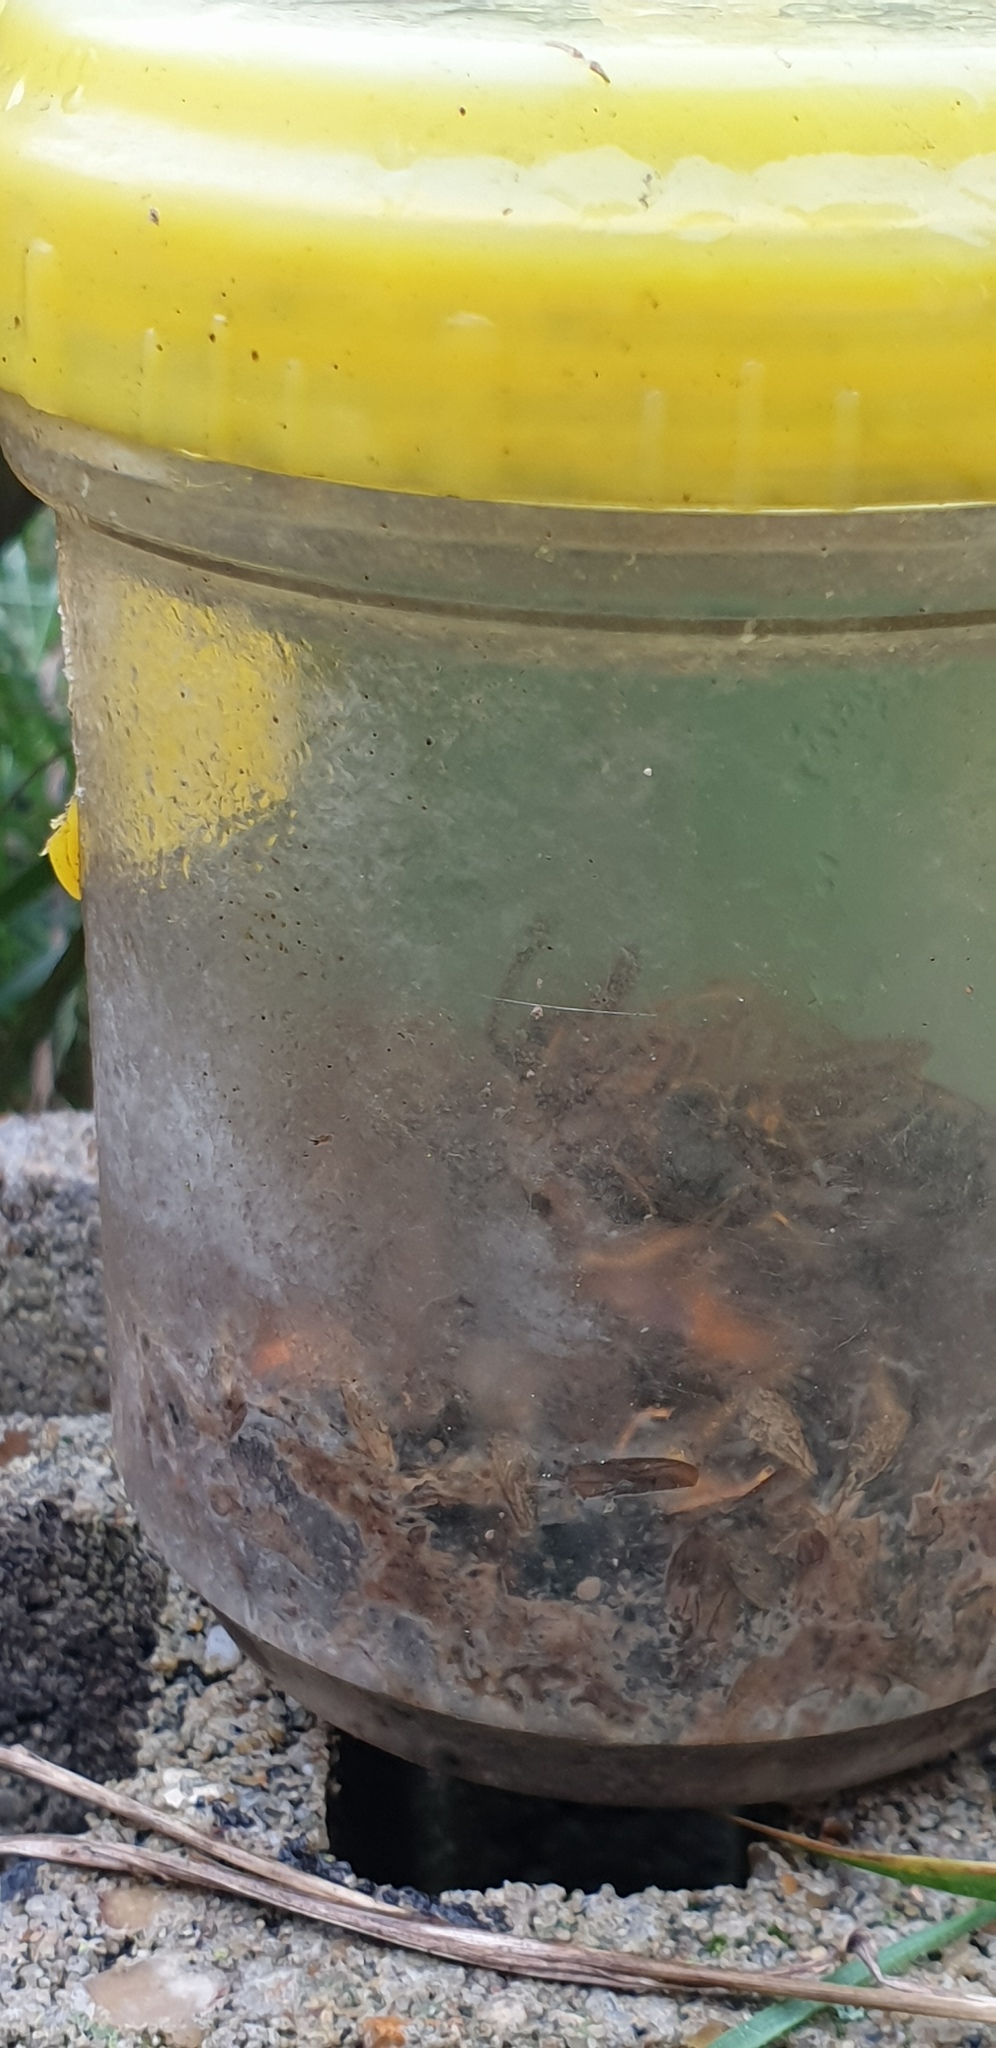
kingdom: Animalia
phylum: Arthropoda
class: Insecta
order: Hymenoptera
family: Vespidae
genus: Vespa
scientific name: Vespa velutina
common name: Asian hornet
